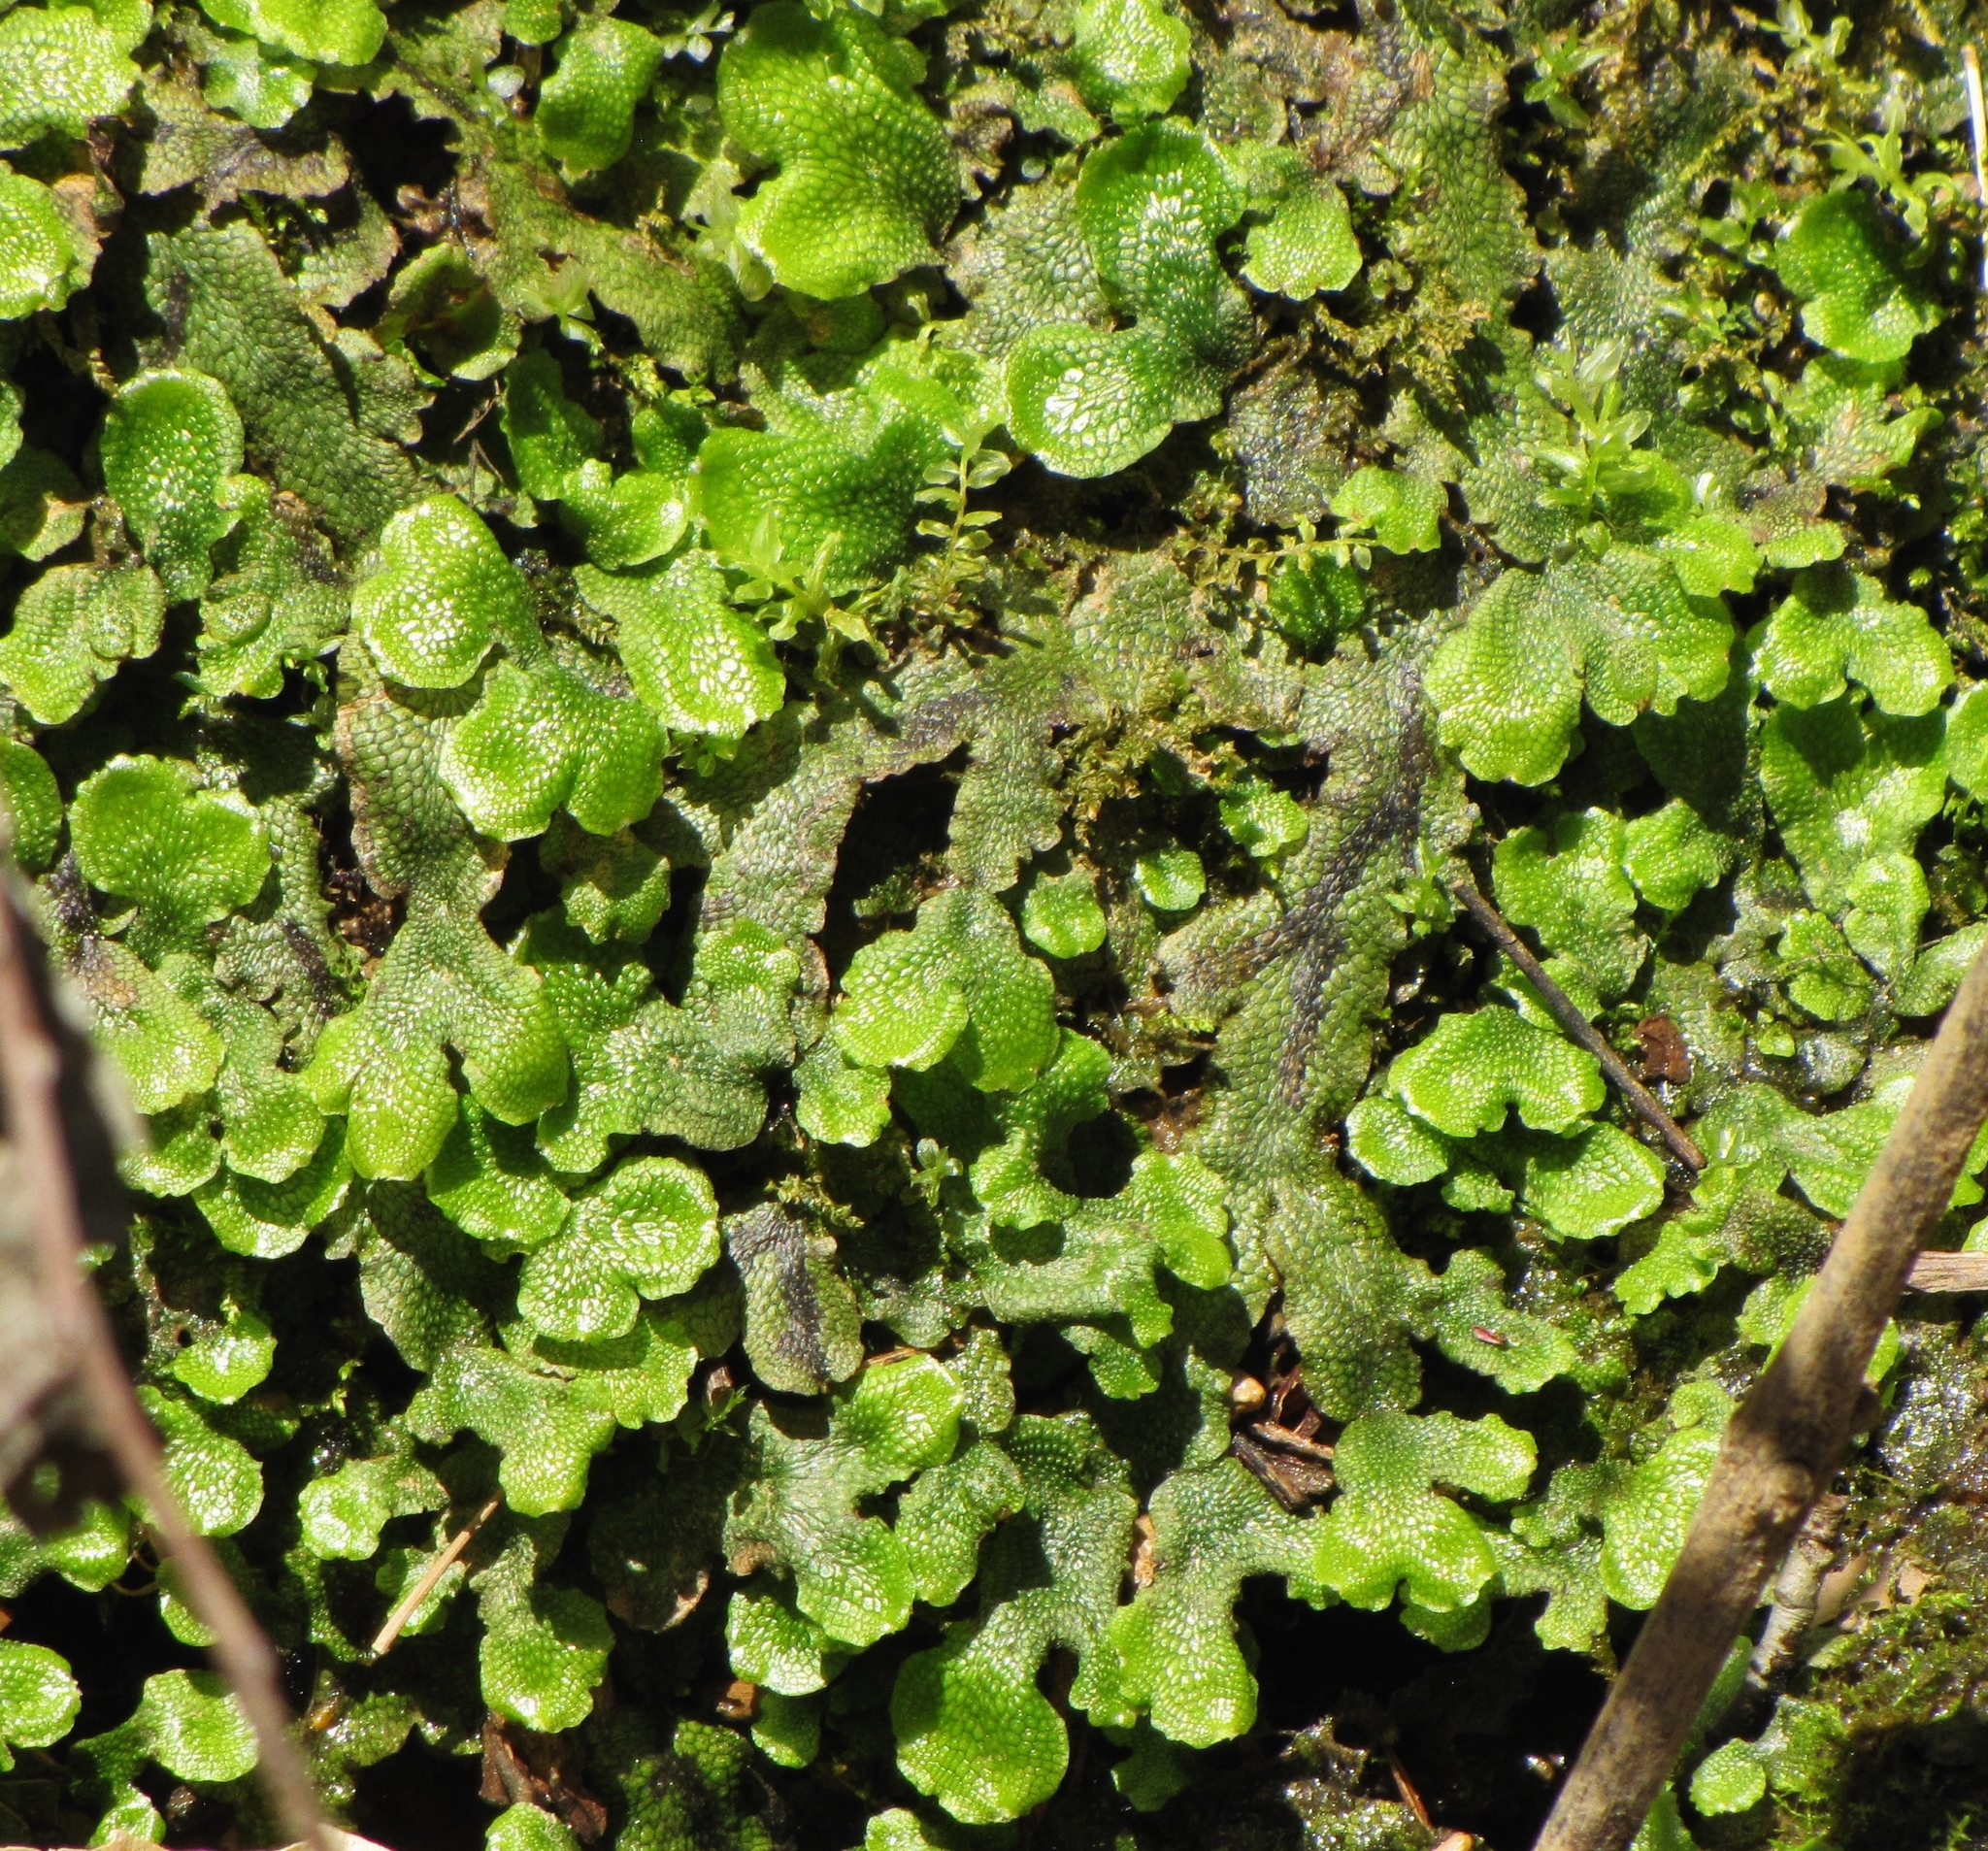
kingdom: Plantae
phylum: Marchantiophyta
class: Marchantiopsida
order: Marchantiales
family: Conocephalaceae
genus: Conocephalum
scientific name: Conocephalum salebrosum
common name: Cat-tongue liverwort
